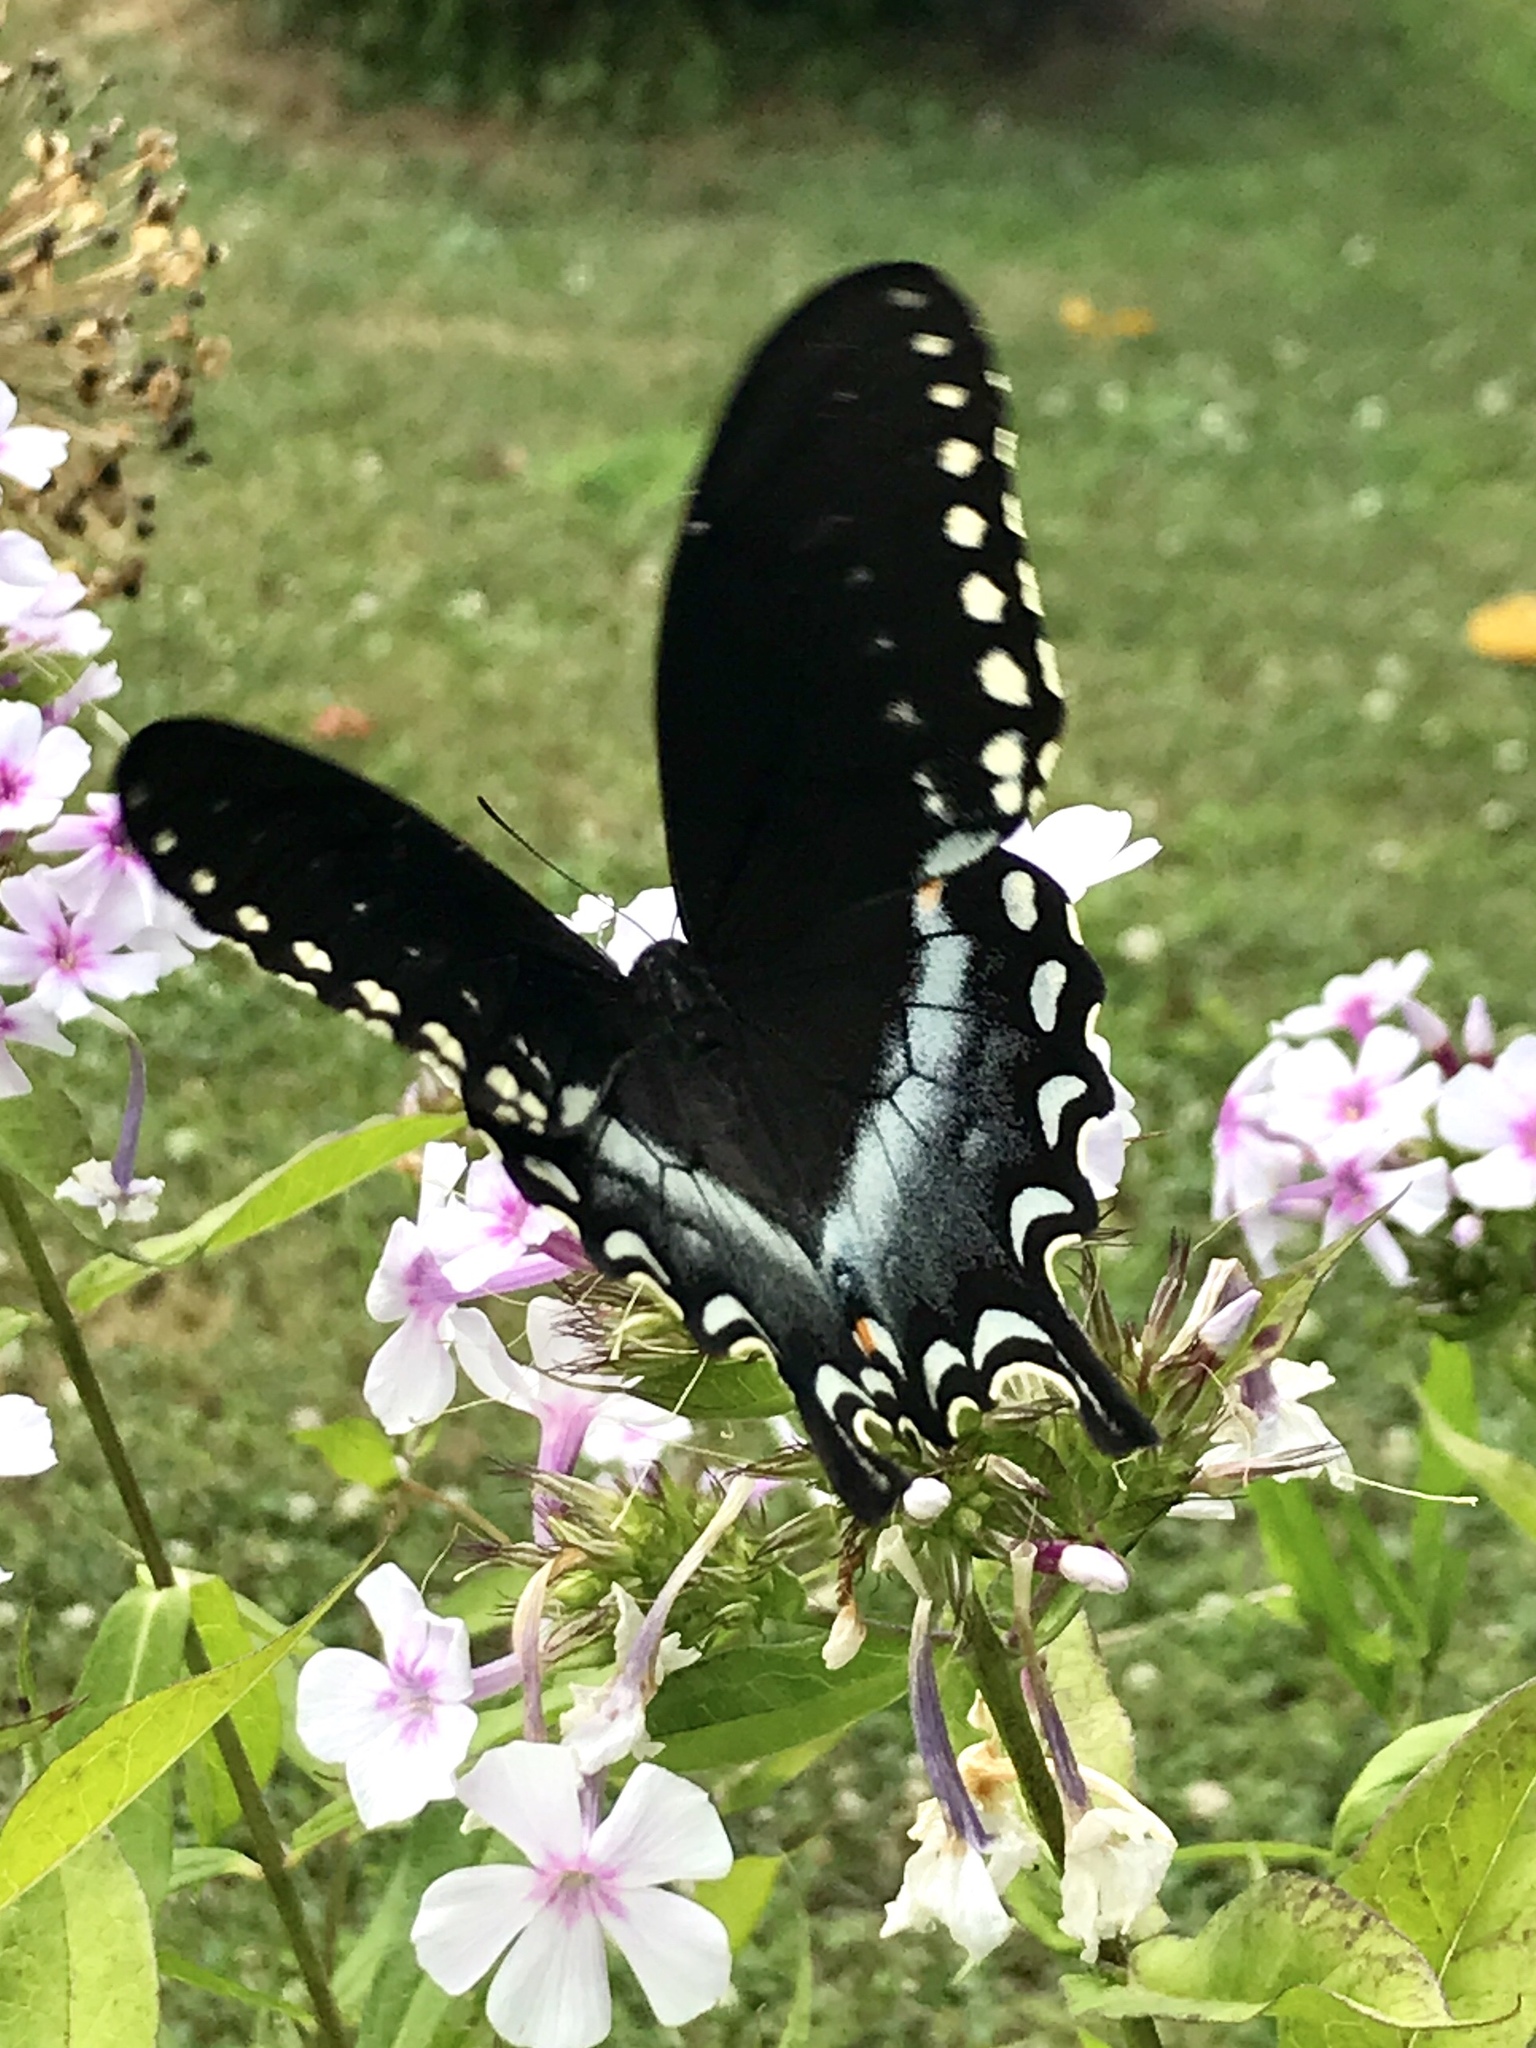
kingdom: Animalia
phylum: Arthropoda
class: Insecta
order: Lepidoptera
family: Papilionidae
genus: Papilio
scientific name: Papilio troilus
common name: Spicebush swallowtail
